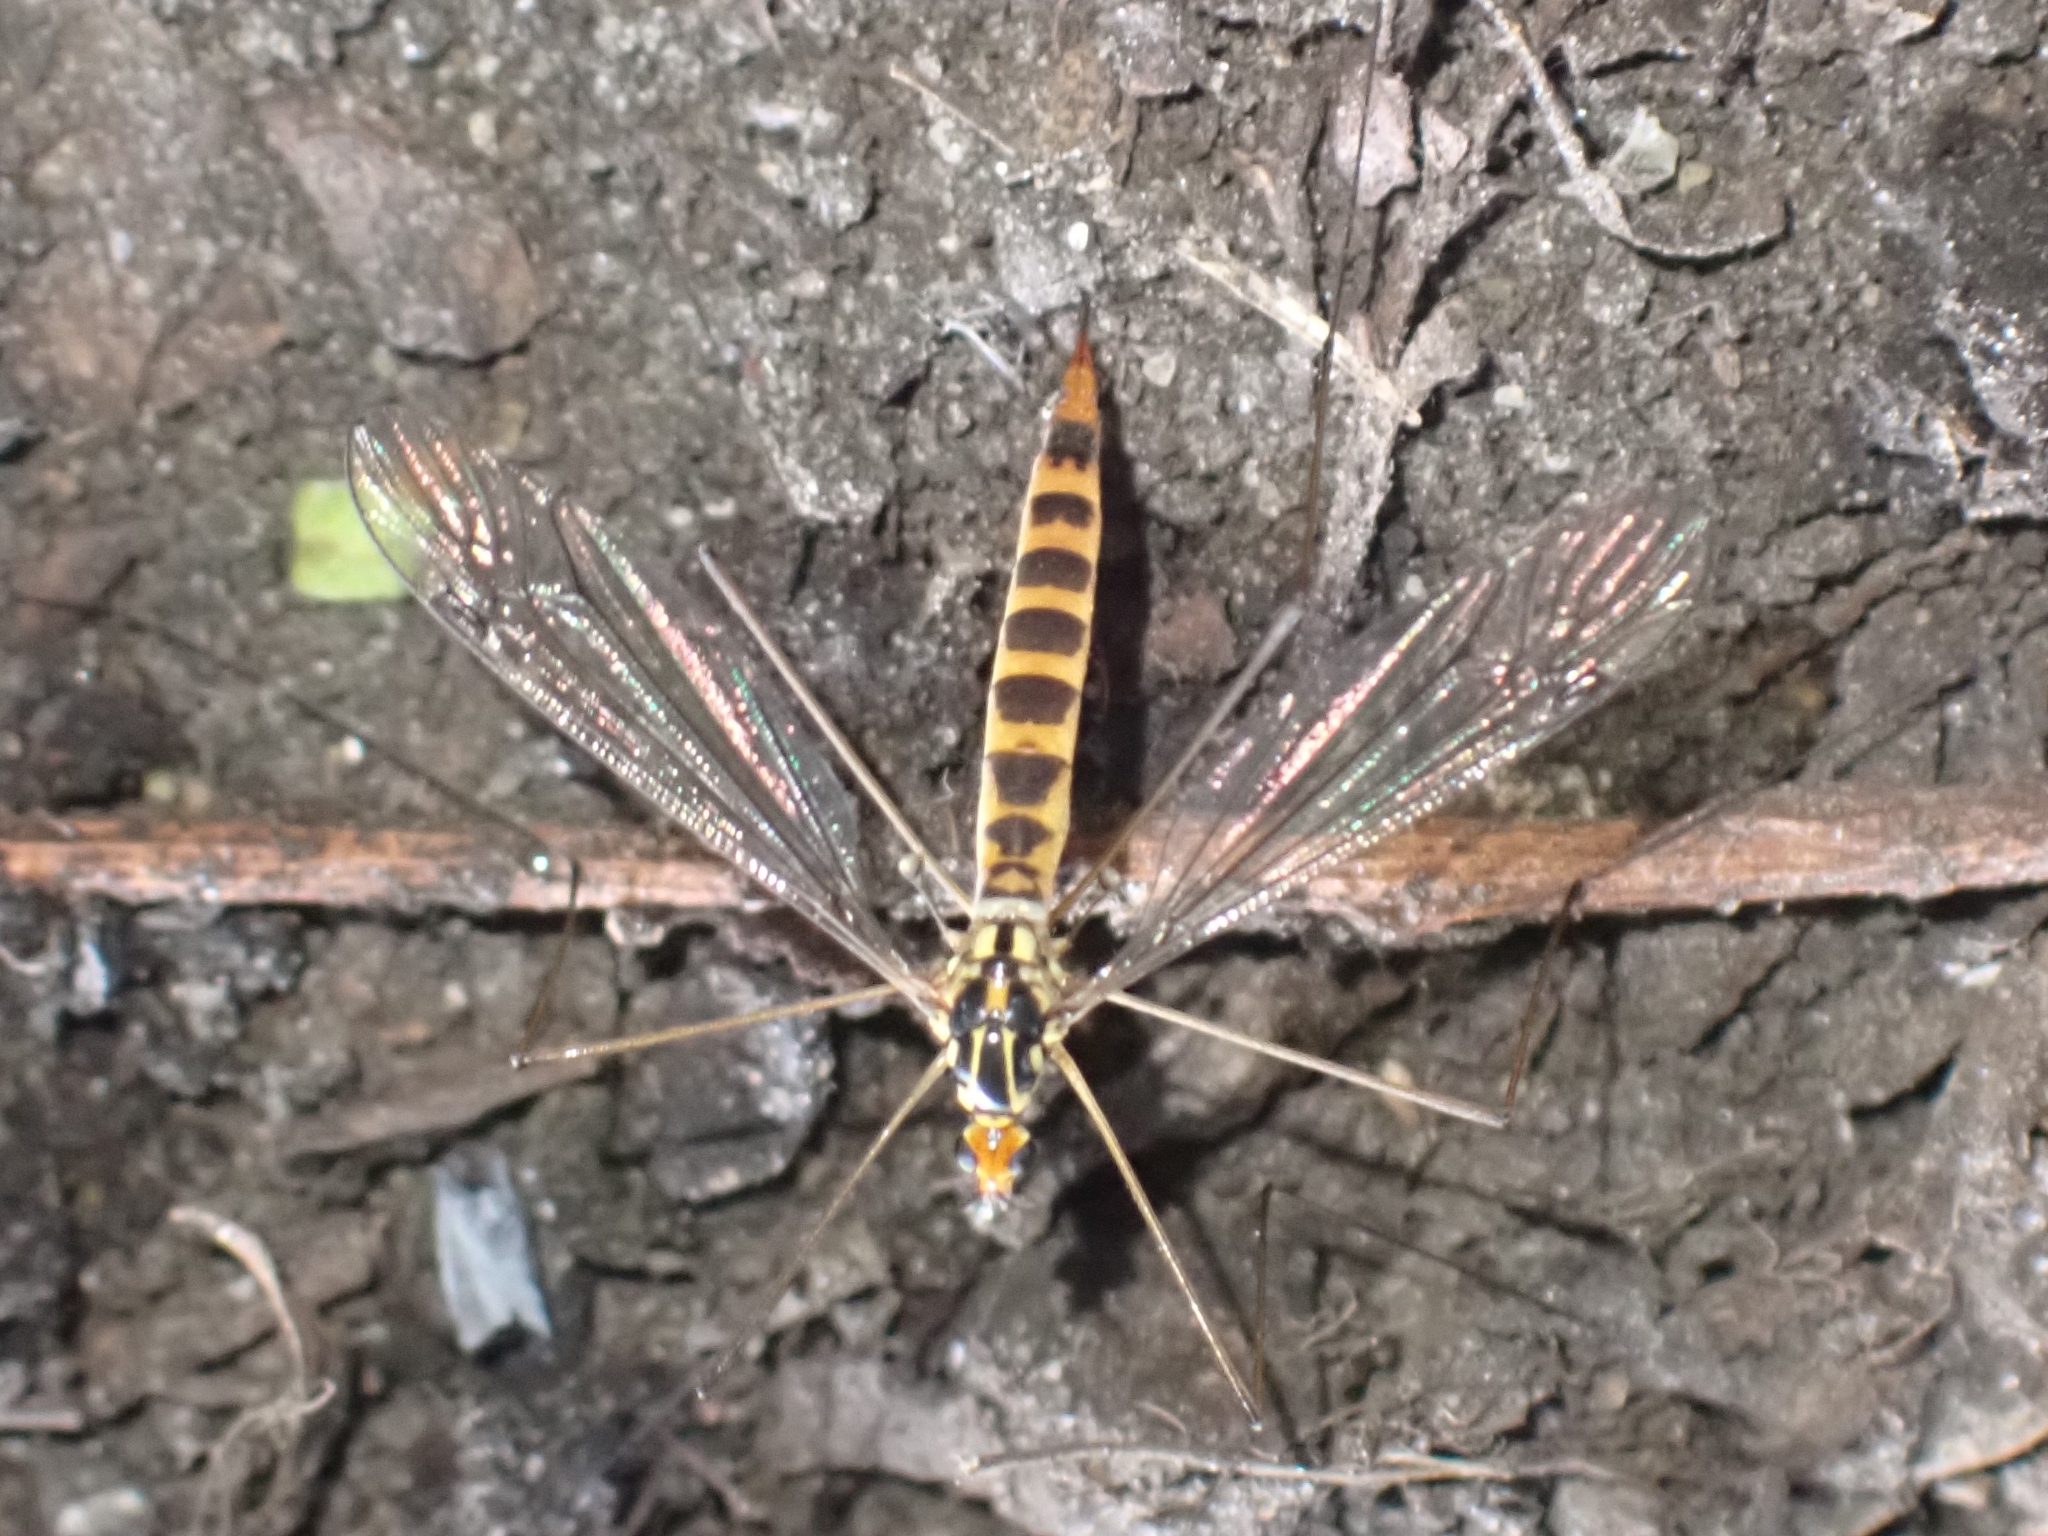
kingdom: Animalia
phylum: Arthropoda
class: Insecta
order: Diptera
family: Tipulidae
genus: Nephrotoma
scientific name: Nephrotoma flavipalpis
